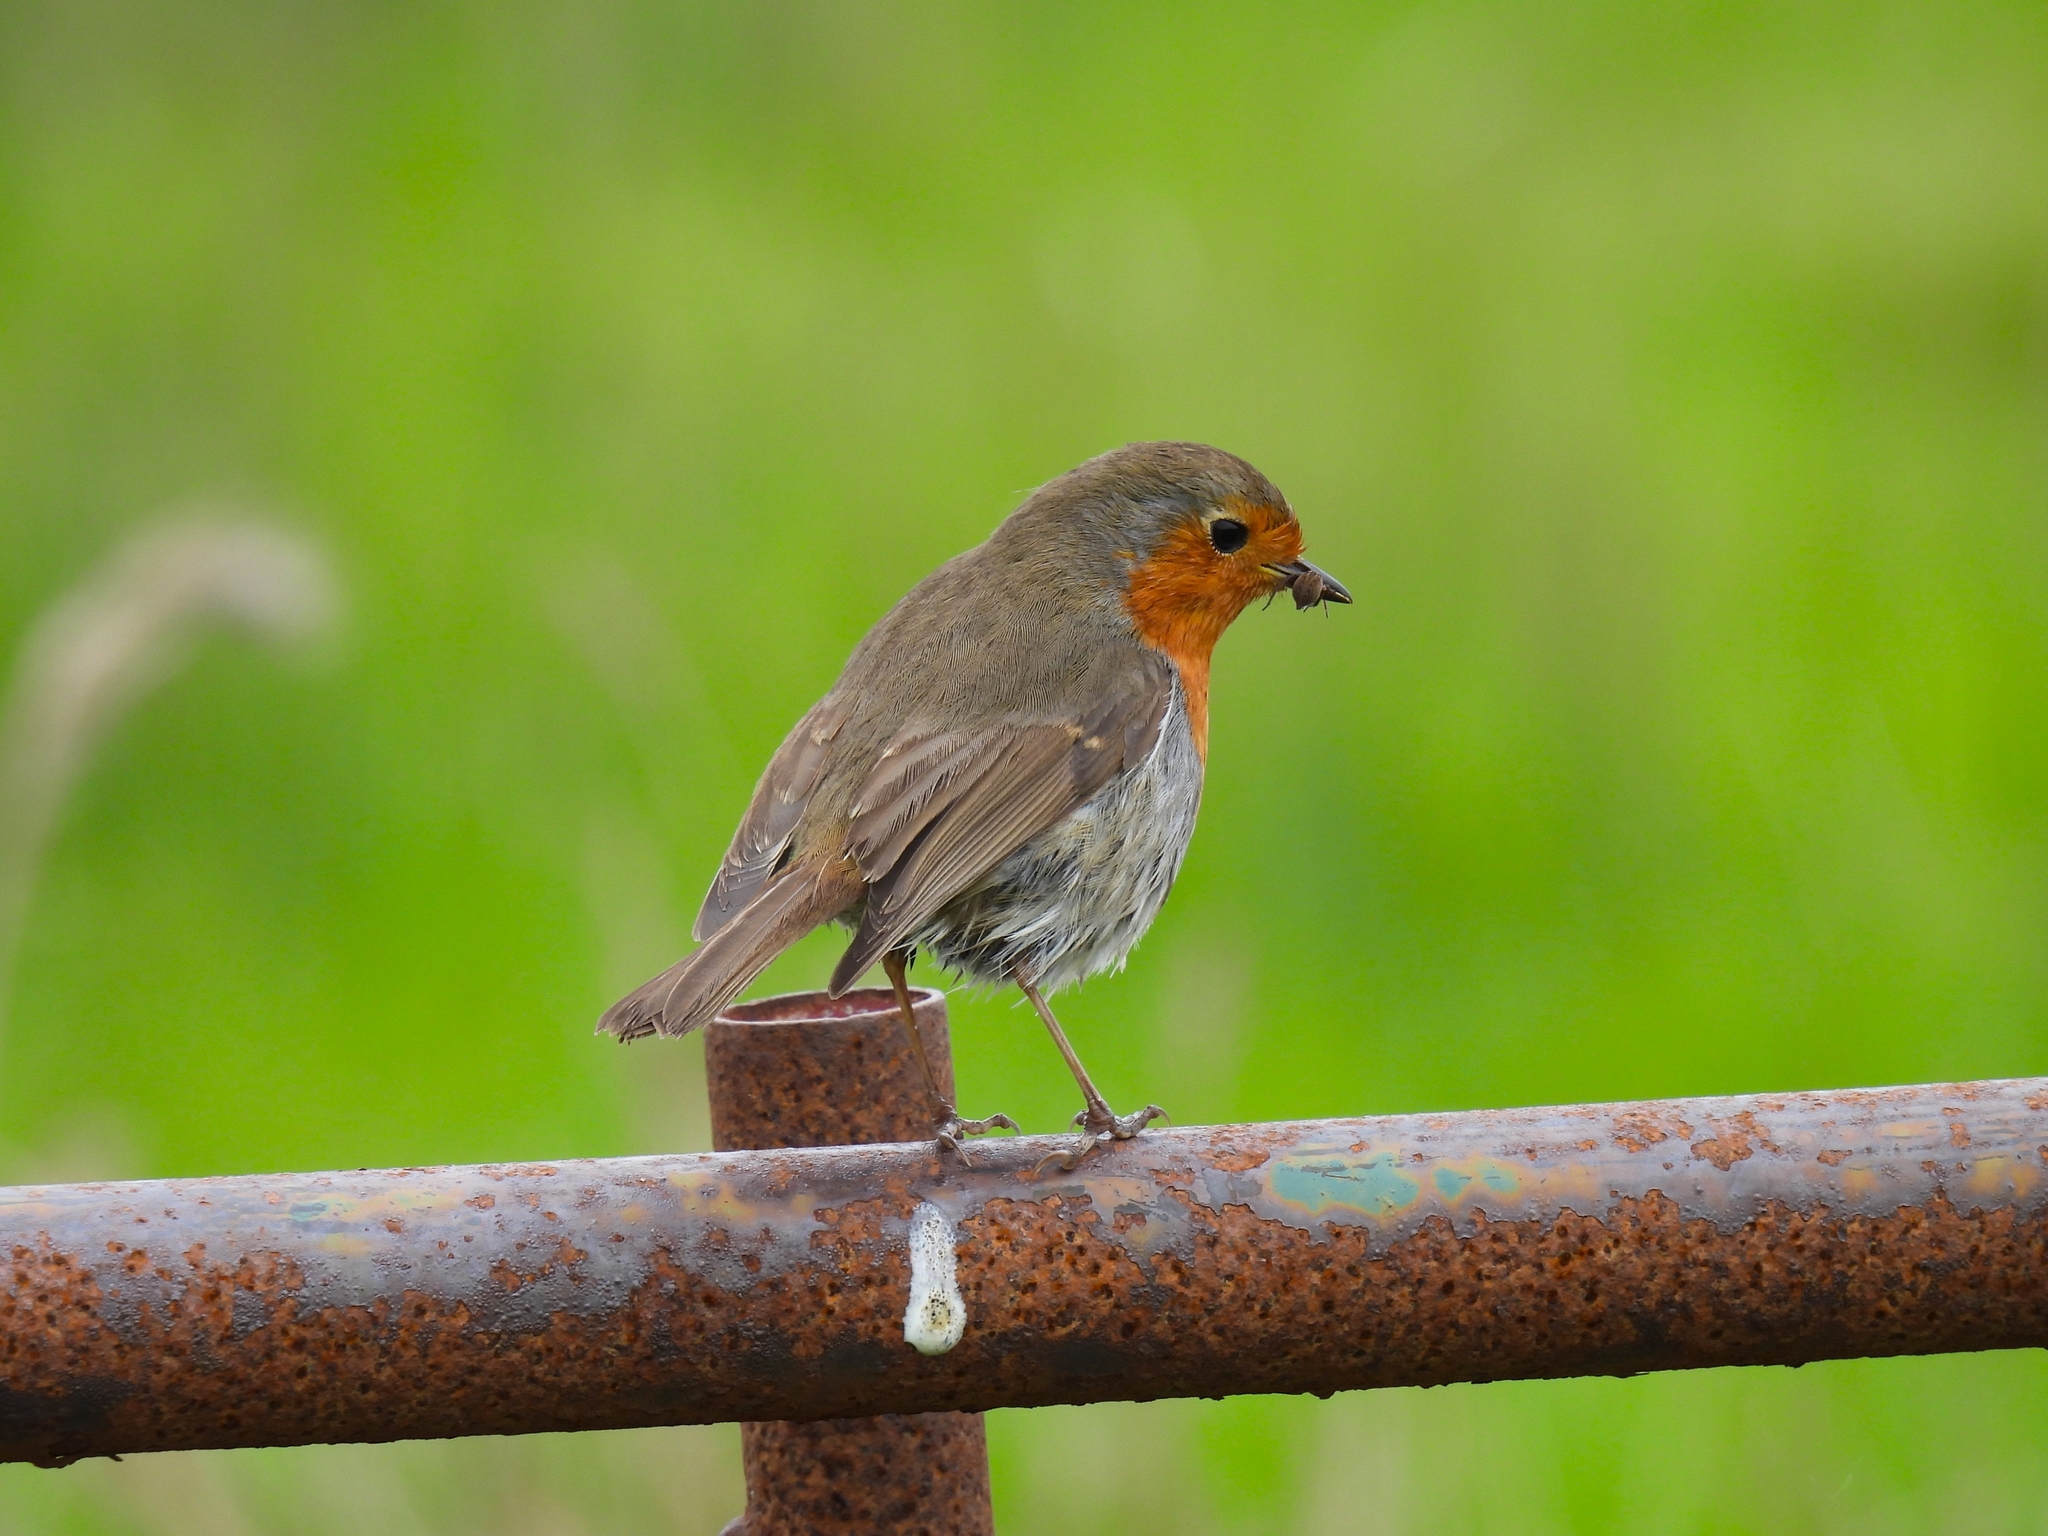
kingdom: Animalia
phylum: Chordata
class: Aves
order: Passeriformes
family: Muscicapidae
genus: Erithacus
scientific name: Erithacus rubecula
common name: European robin
